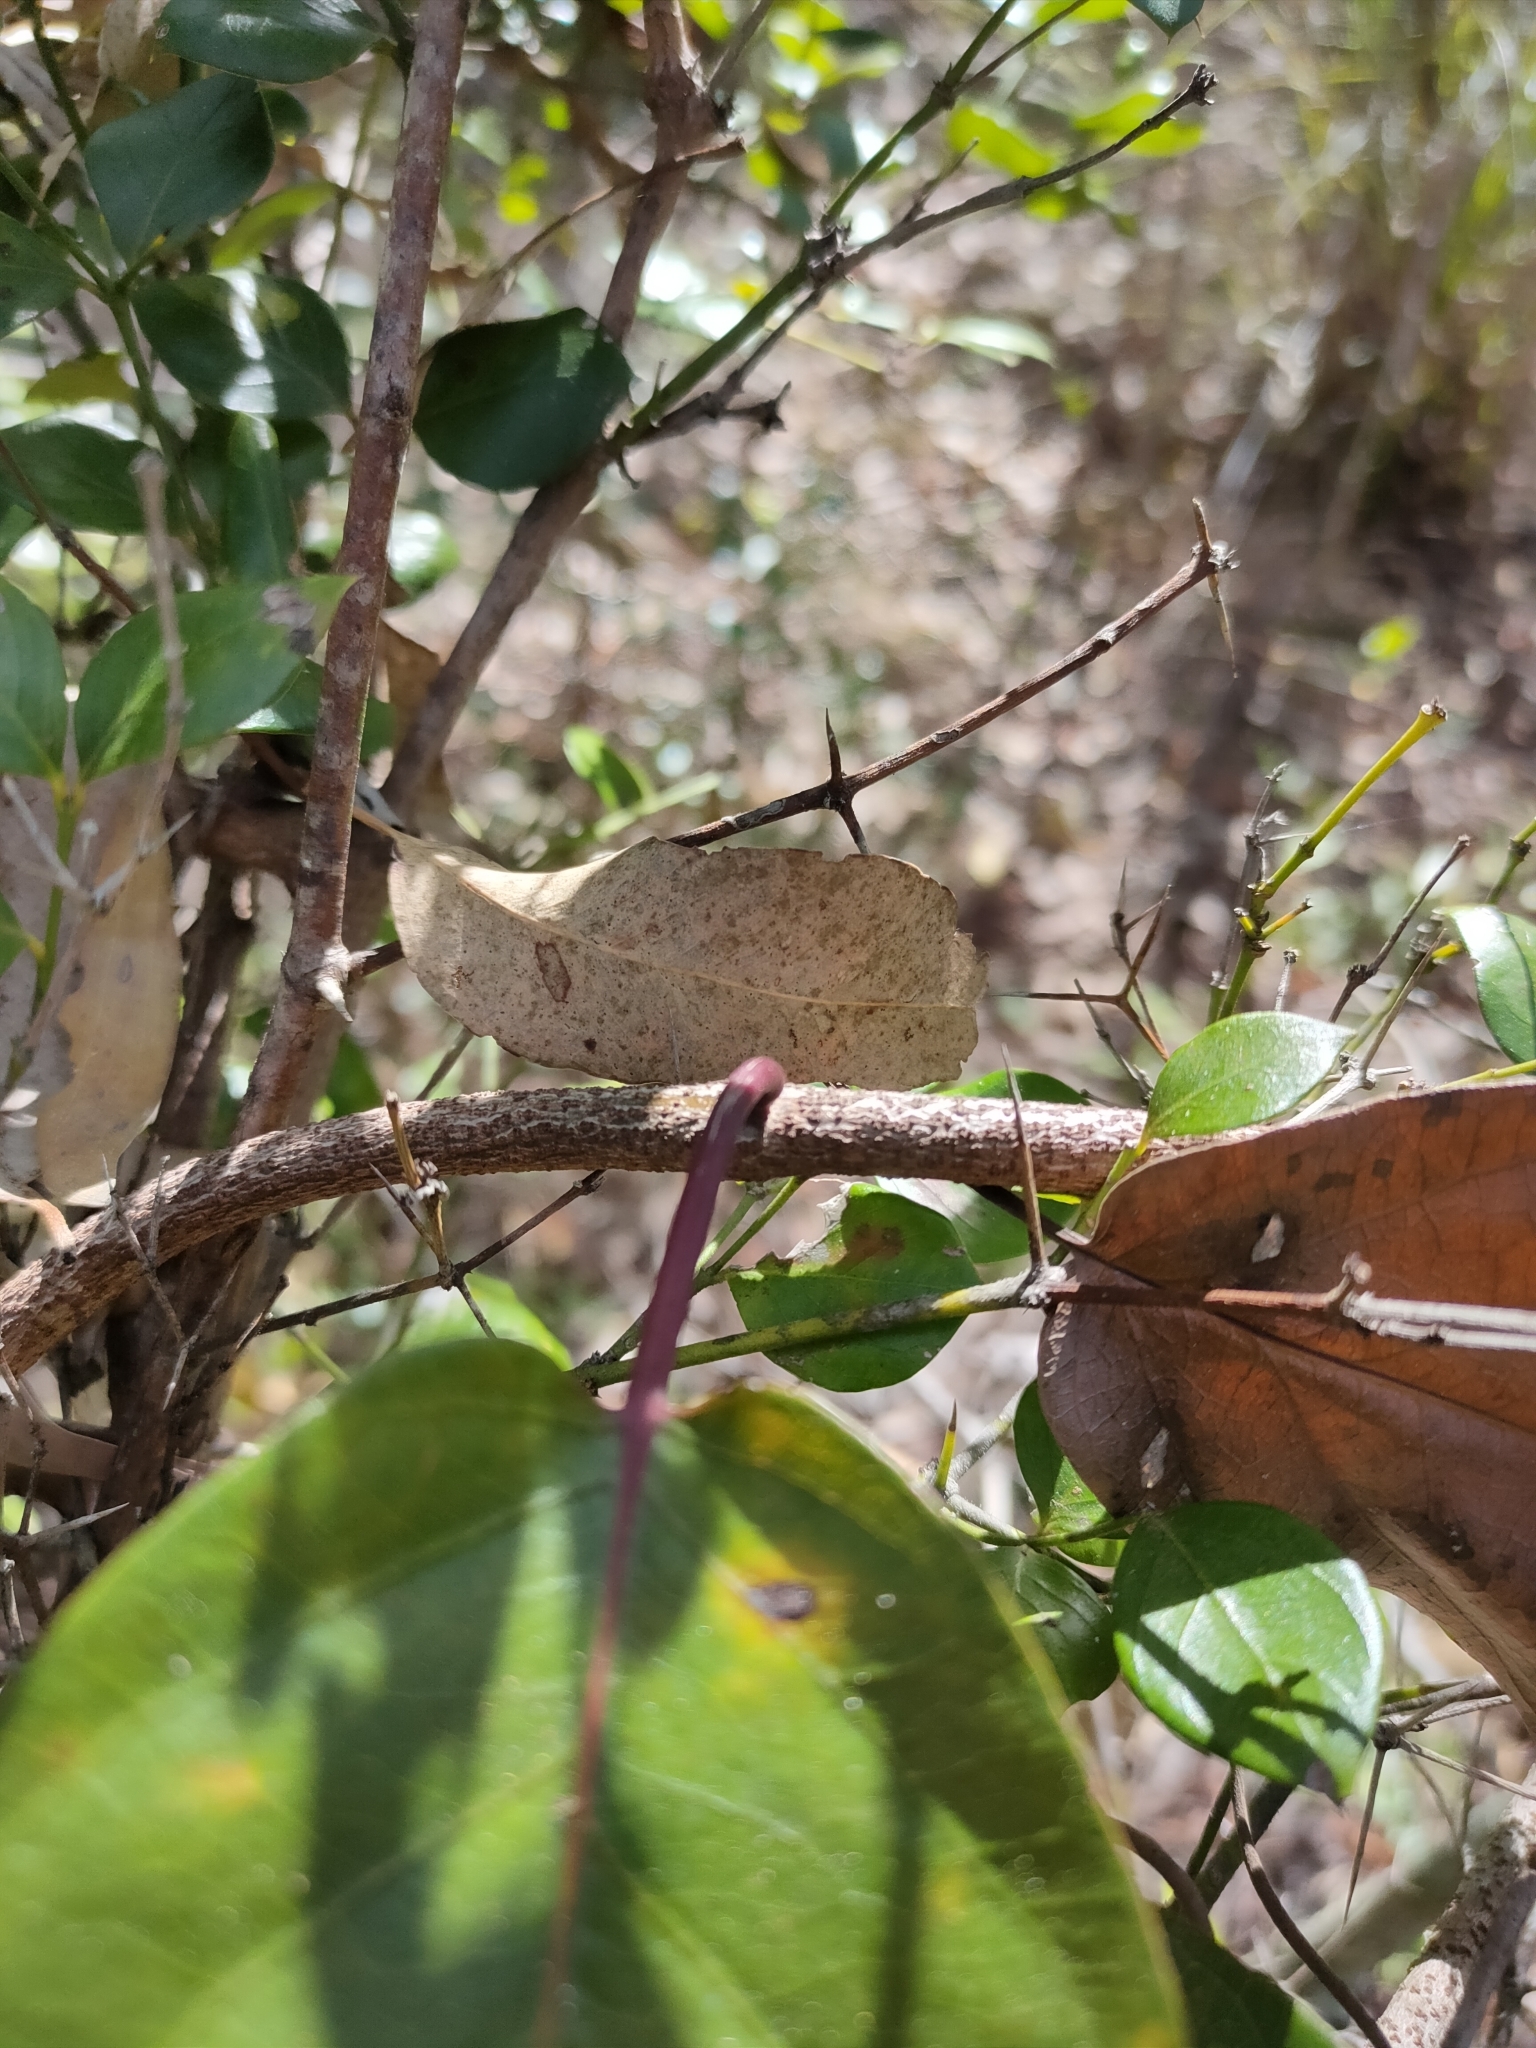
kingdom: Plantae
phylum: Tracheophyta
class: Magnoliopsida
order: Gentianales
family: Apocynaceae
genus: Parsonsia
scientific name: Parsonsia straminea
